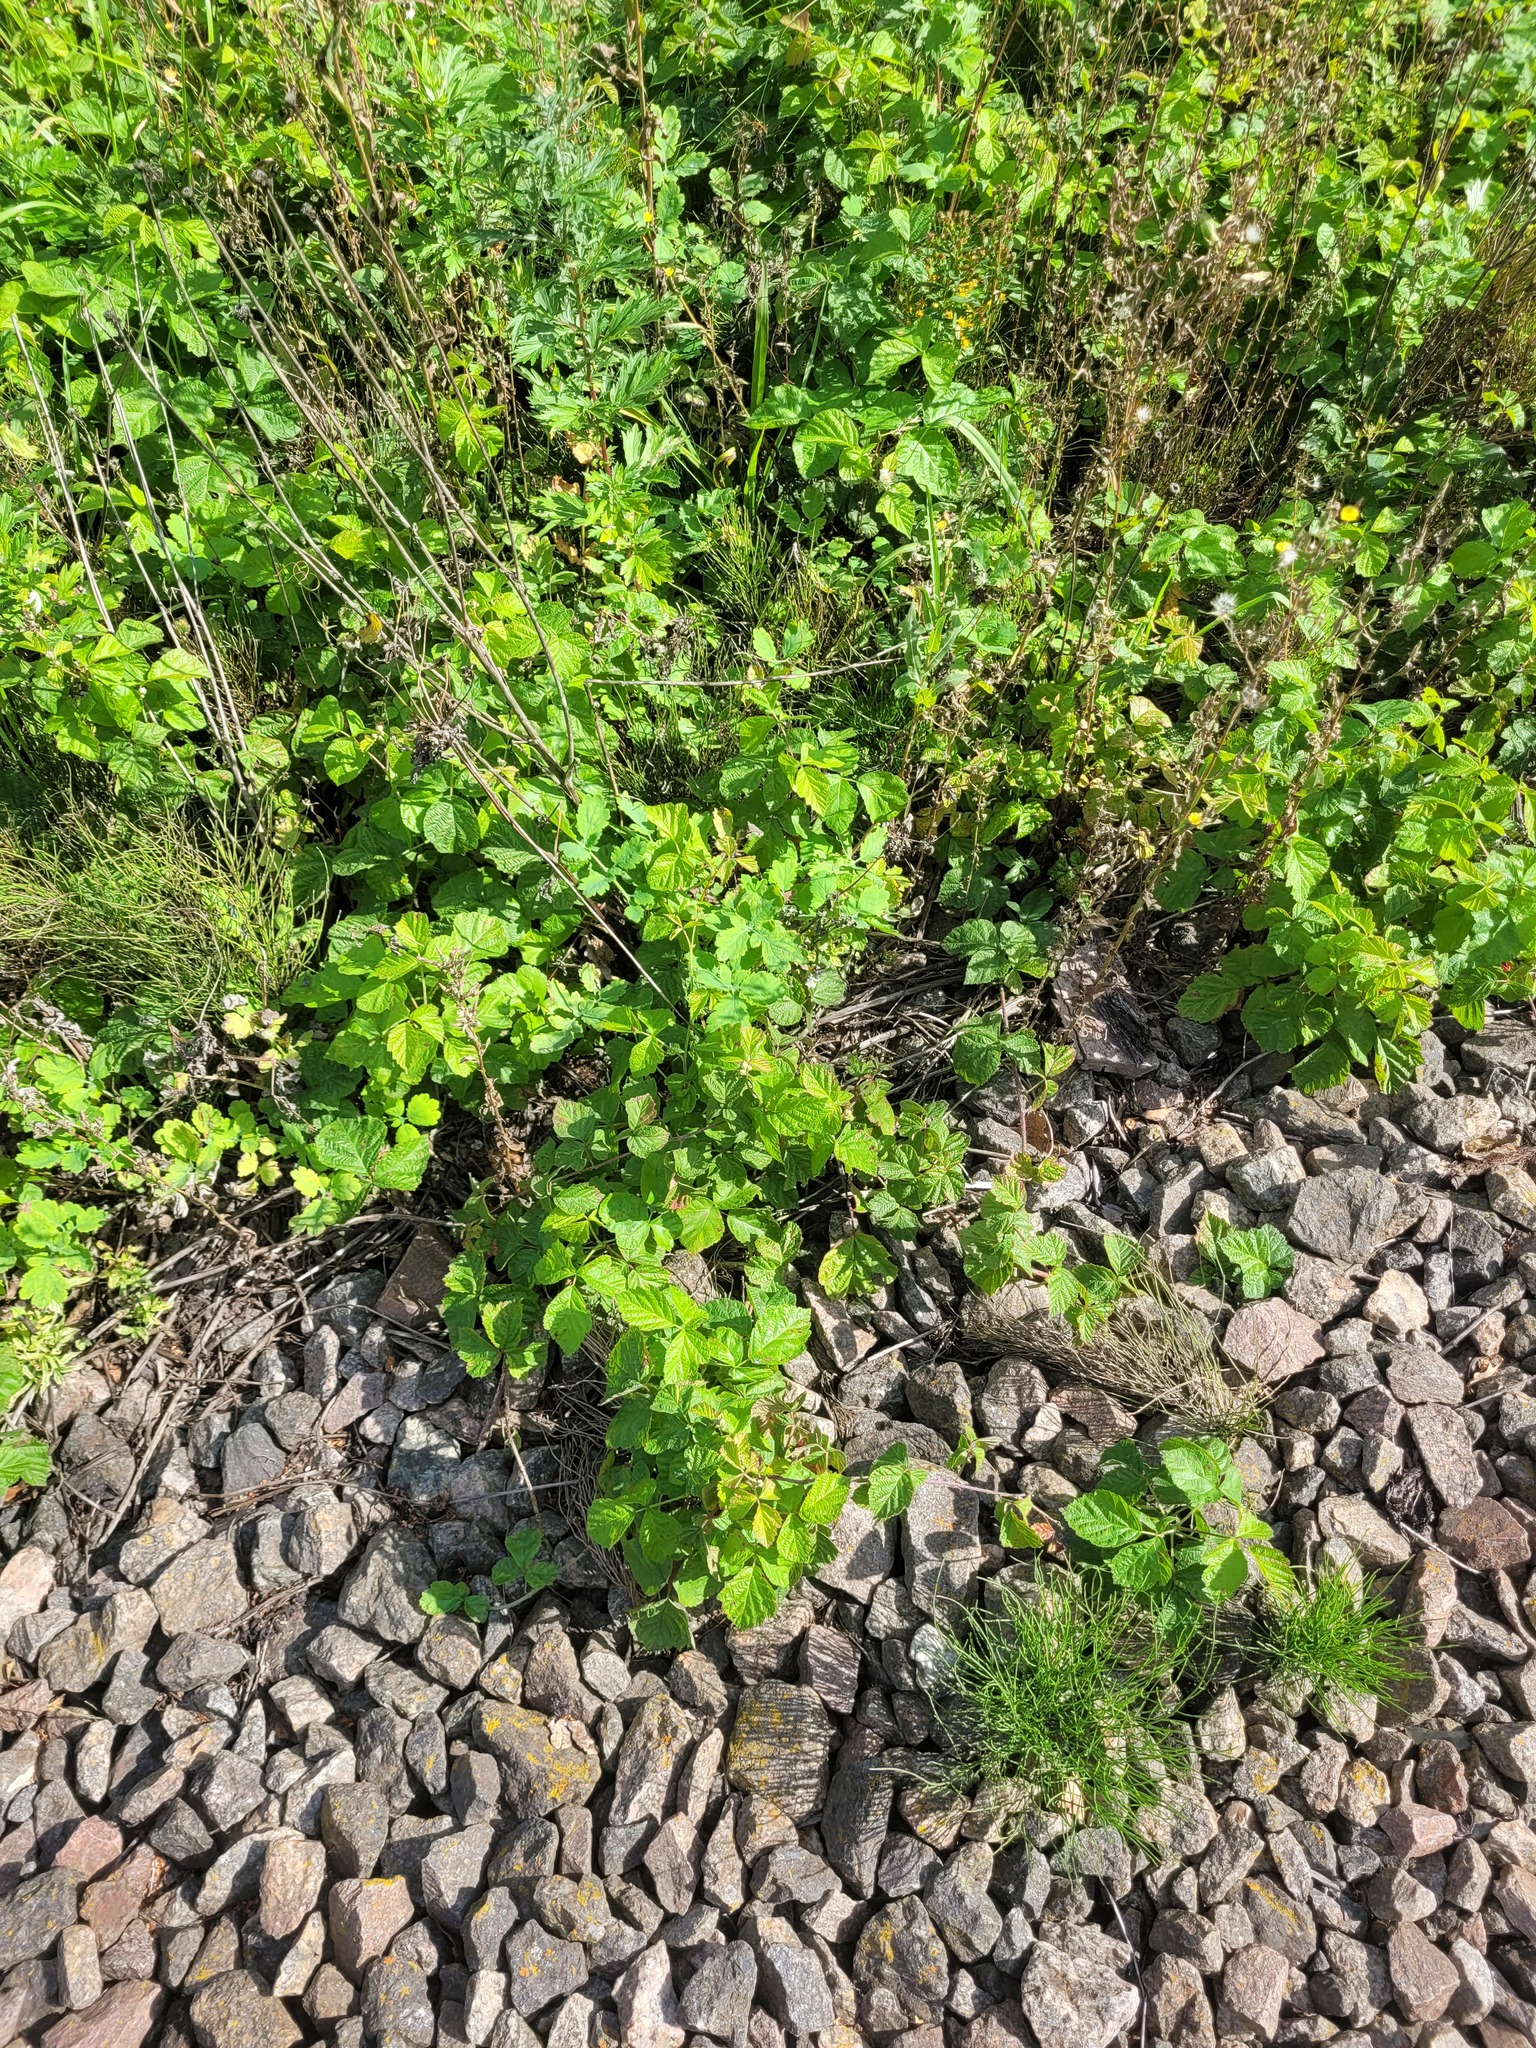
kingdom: Plantae
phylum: Tracheophyta
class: Magnoliopsida
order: Rosales
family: Rosaceae
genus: Rubus
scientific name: Rubus caesius
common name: Dewberry
